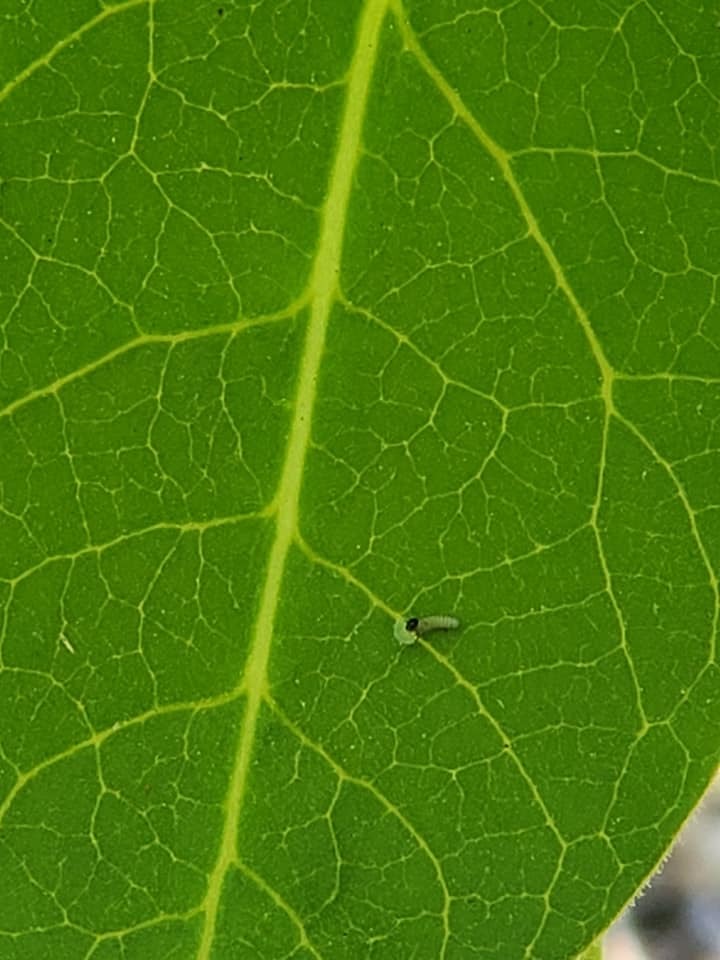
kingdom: Animalia
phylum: Arthropoda
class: Insecta
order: Lepidoptera
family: Nymphalidae
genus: Danaus
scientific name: Danaus plexippus
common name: Monarch
